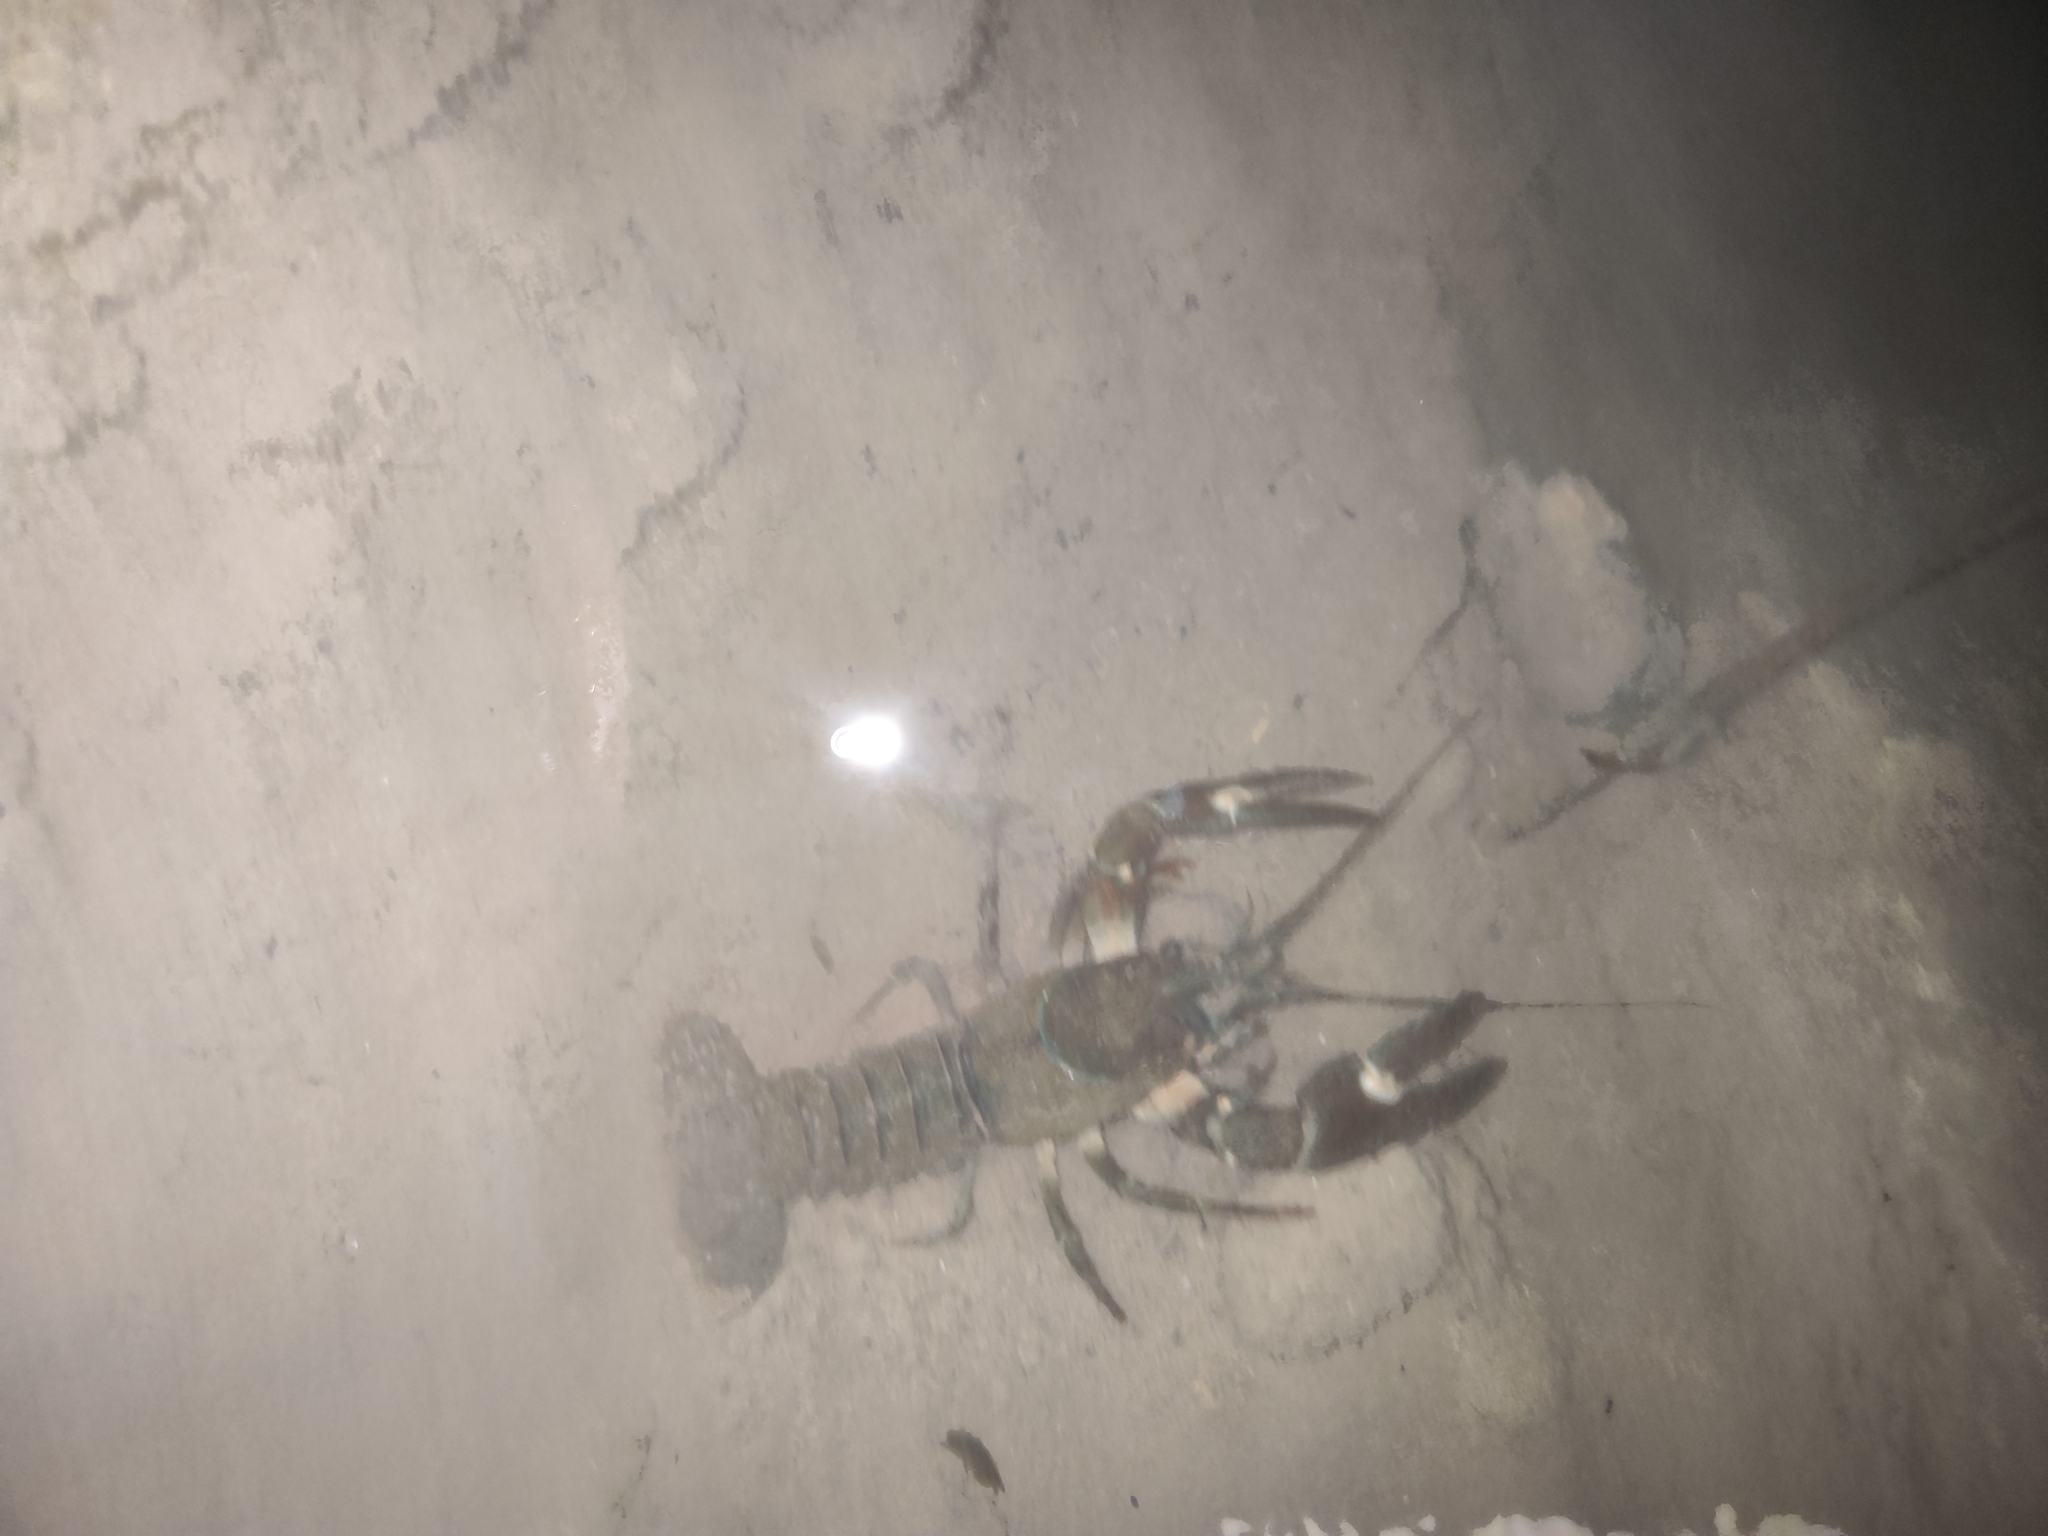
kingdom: Animalia
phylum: Arthropoda
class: Malacostraca
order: Decapoda
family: Astacidae
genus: Pacifastacus
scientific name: Pacifastacus leniusculus
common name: Signal crayfish
